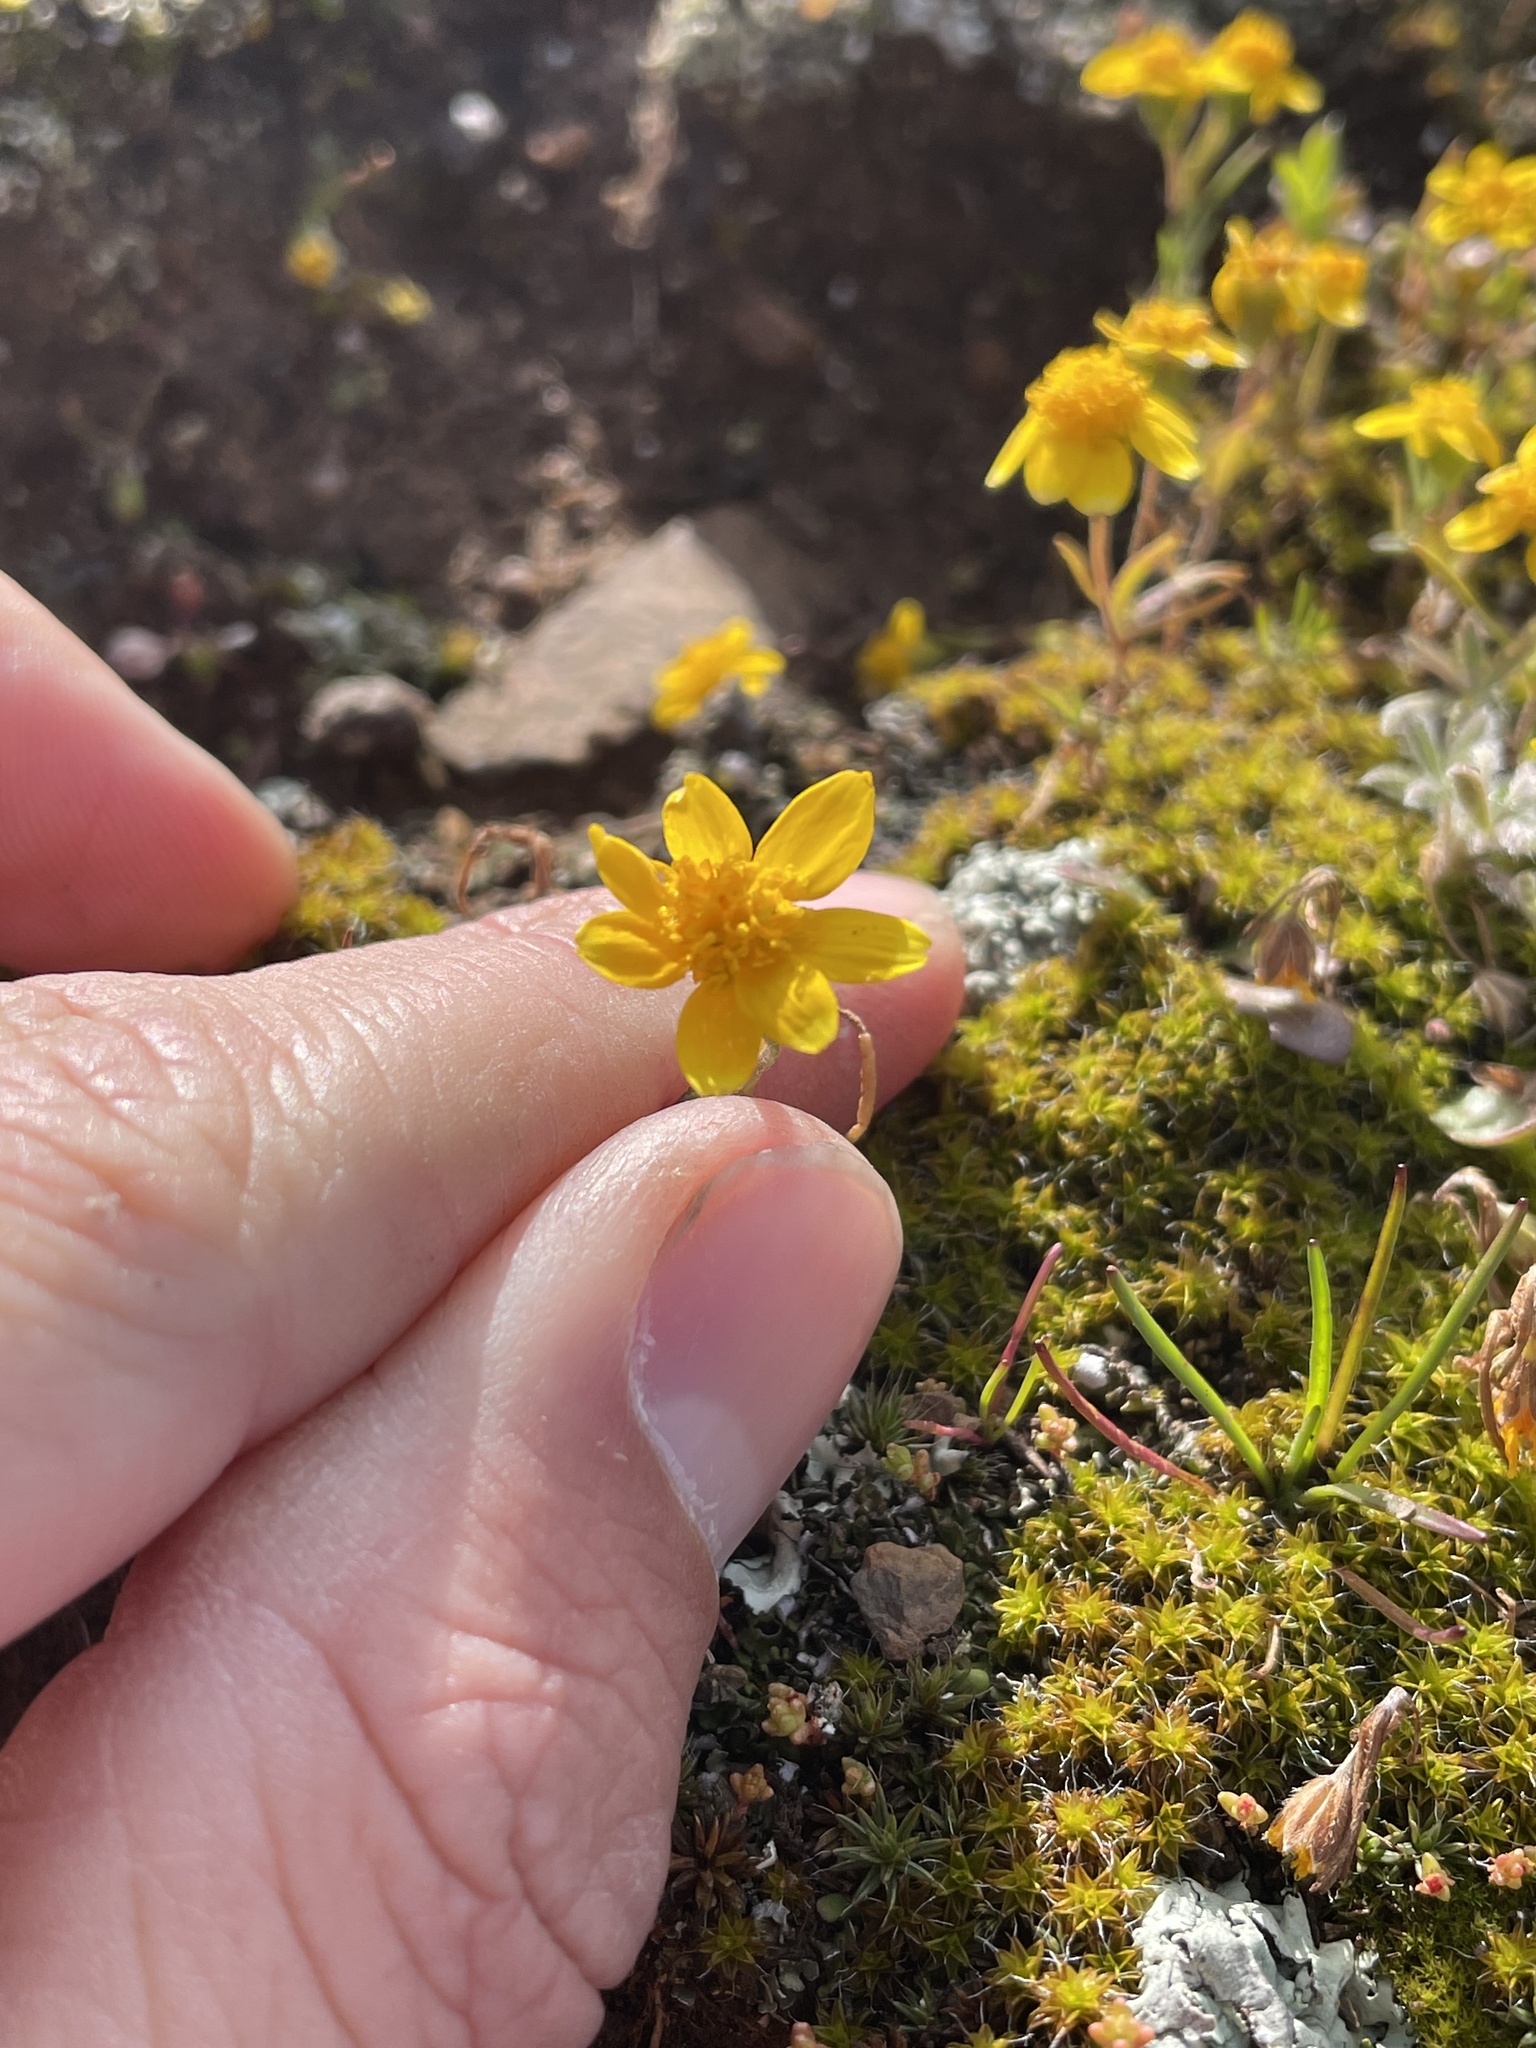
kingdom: Plantae
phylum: Tracheophyta
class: Magnoliopsida
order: Asterales
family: Asteraceae
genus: Lasthenia
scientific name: Lasthenia californica
